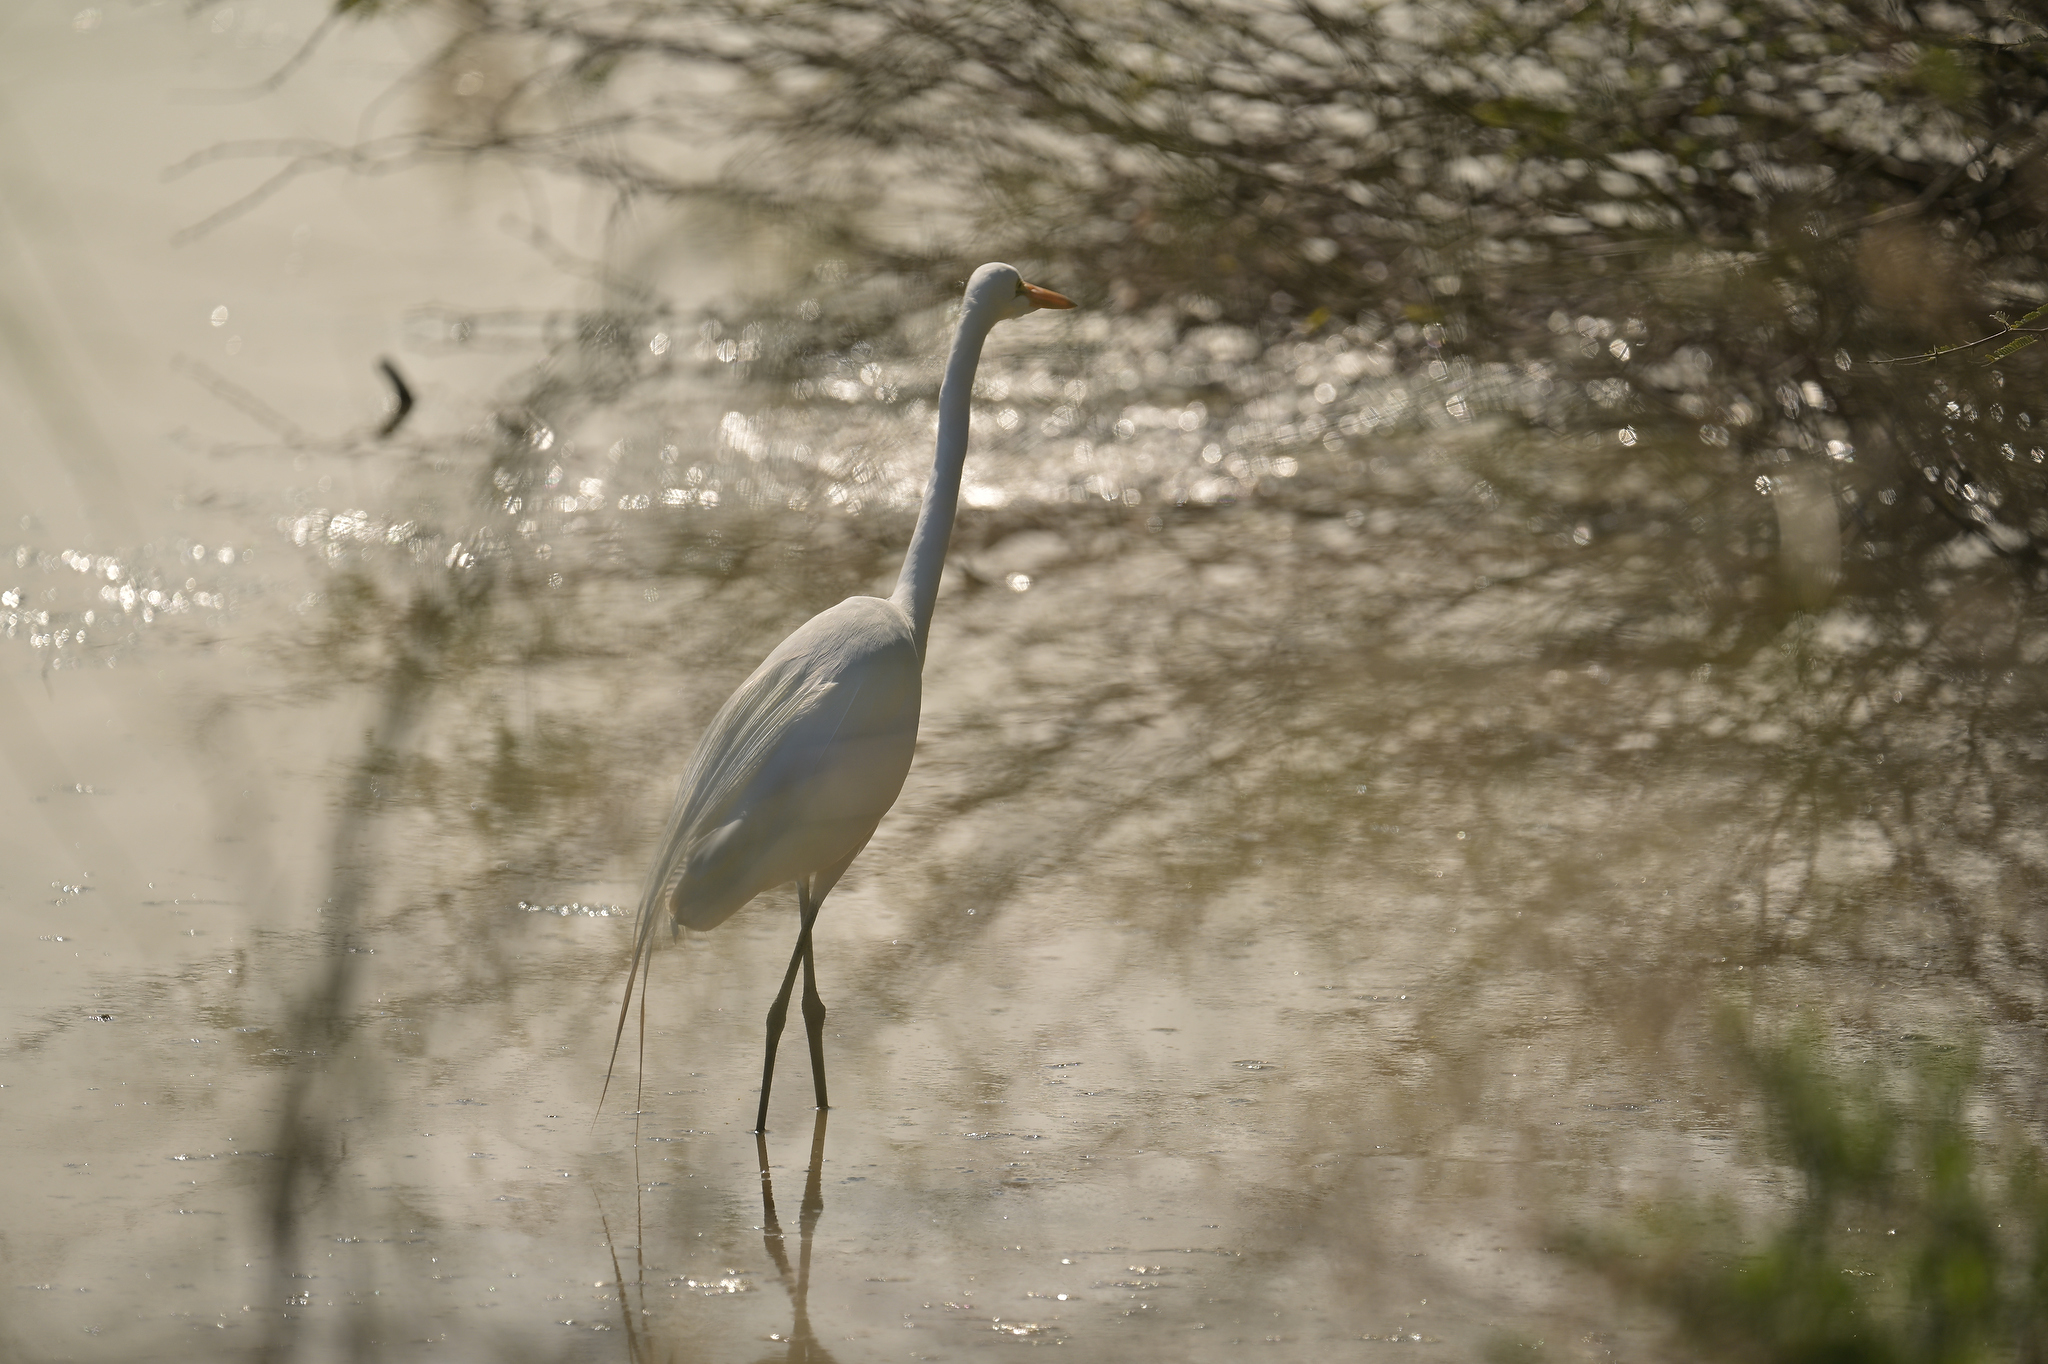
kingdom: Animalia
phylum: Chordata
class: Aves
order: Pelecaniformes
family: Ardeidae
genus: Ardea
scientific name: Ardea alba
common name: Great egret
